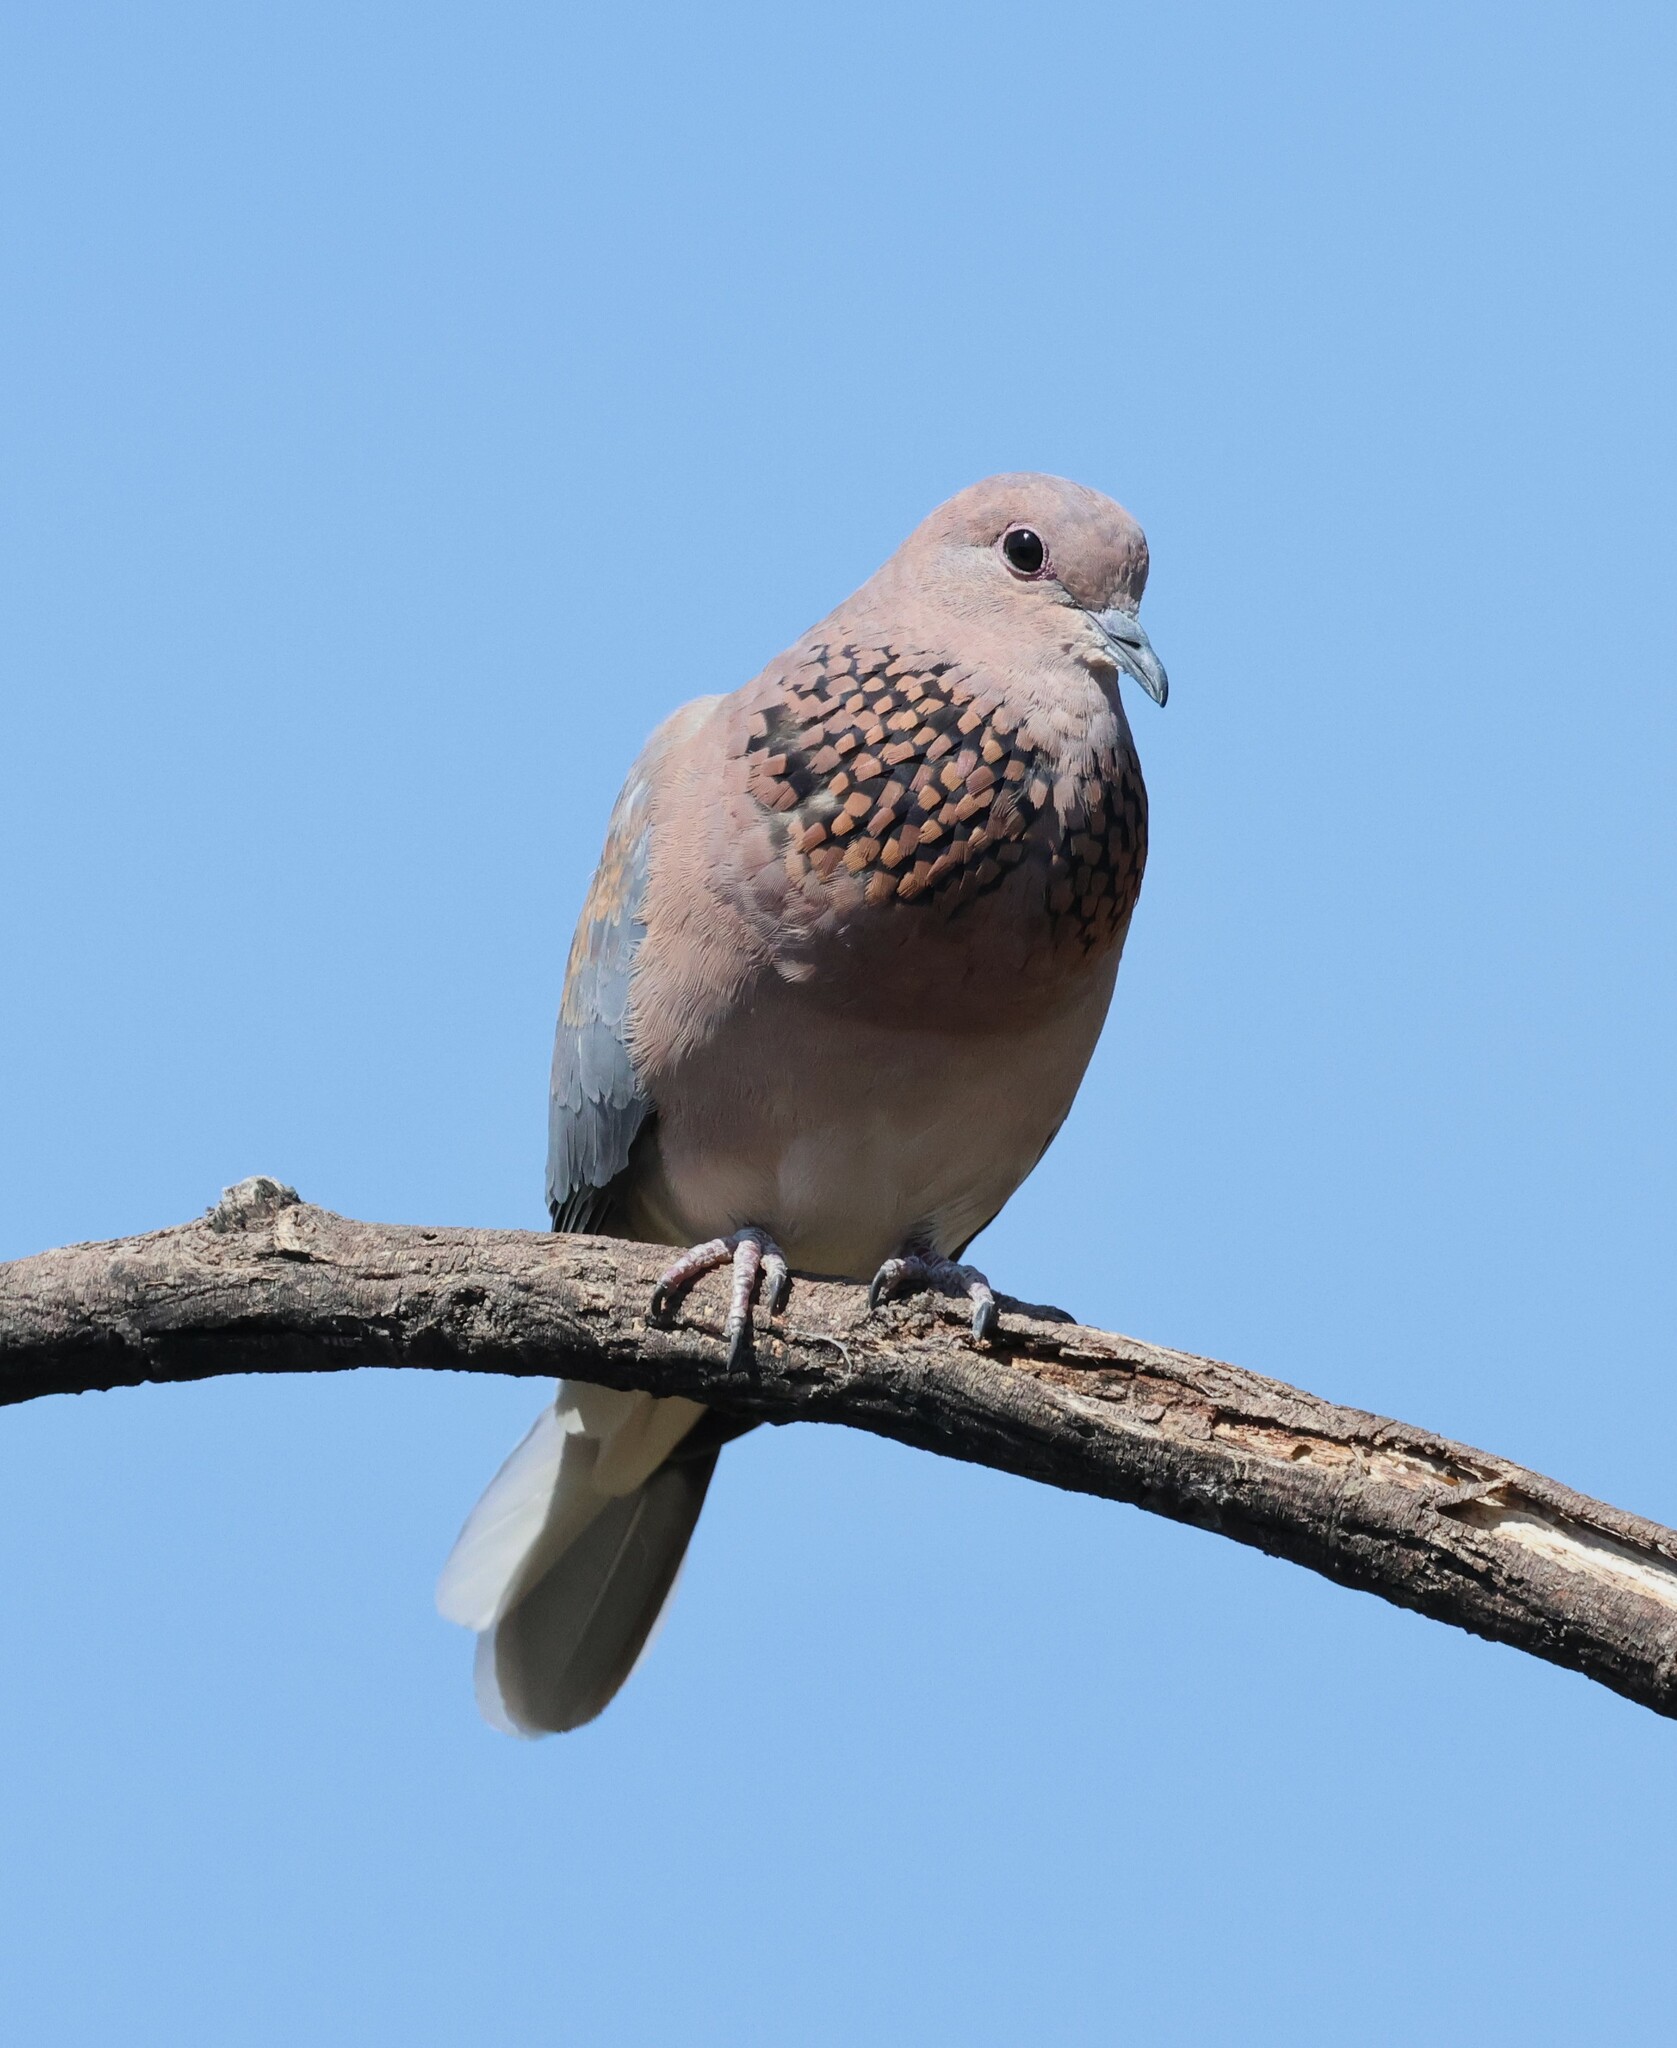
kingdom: Animalia
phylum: Chordata
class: Aves
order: Columbiformes
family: Columbidae
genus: Spilopelia
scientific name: Spilopelia senegalensis
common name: Laughing dove
